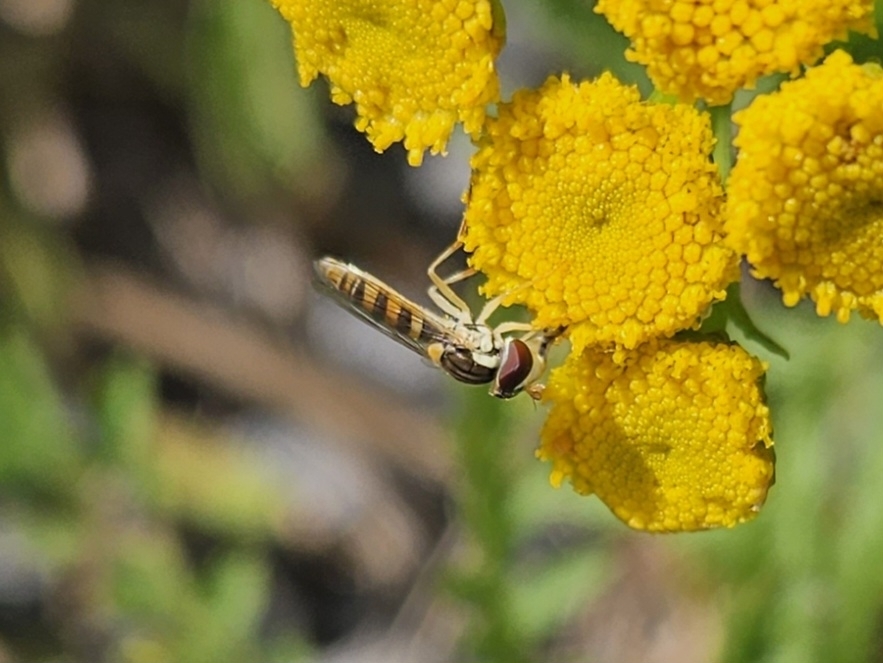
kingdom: Animalia
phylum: Arthropoda
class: Insecta
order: Diptera
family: Syrphidae
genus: Sphaerophoria
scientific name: Sphaerophoria contigua
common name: Tufted globetail
